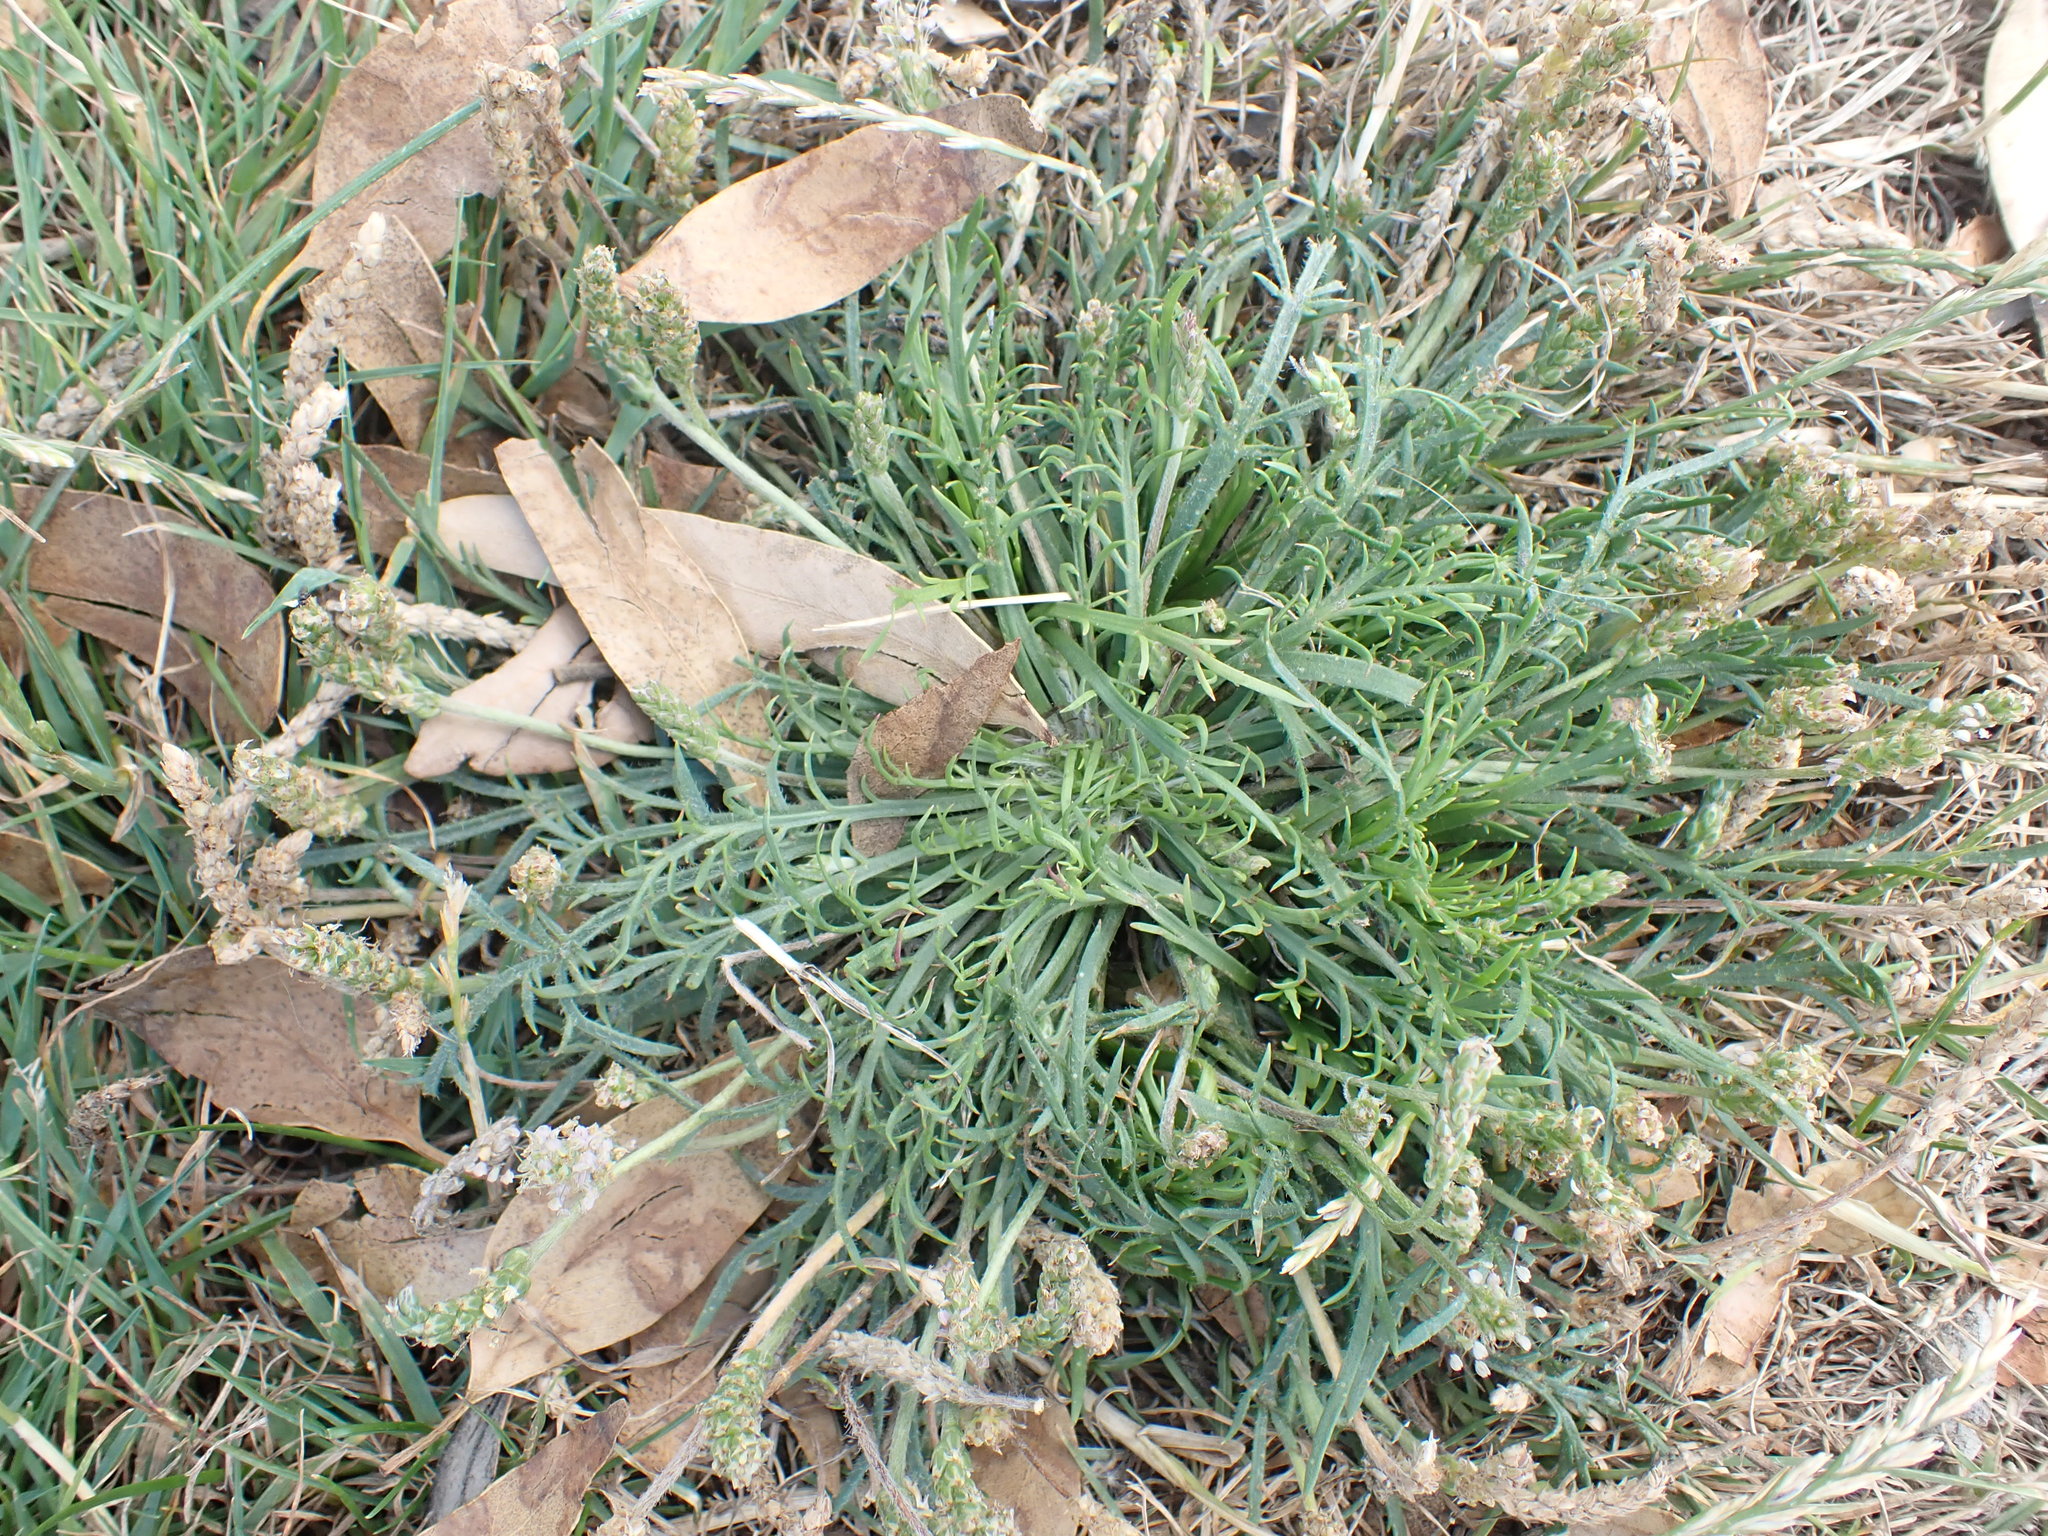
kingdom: Plantae
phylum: Tracheophyta
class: Magnoliopsida
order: Lamiales
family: Plantaginaceae
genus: Plantago
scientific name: Plantago coronopus
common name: Buck's-horn plantain
